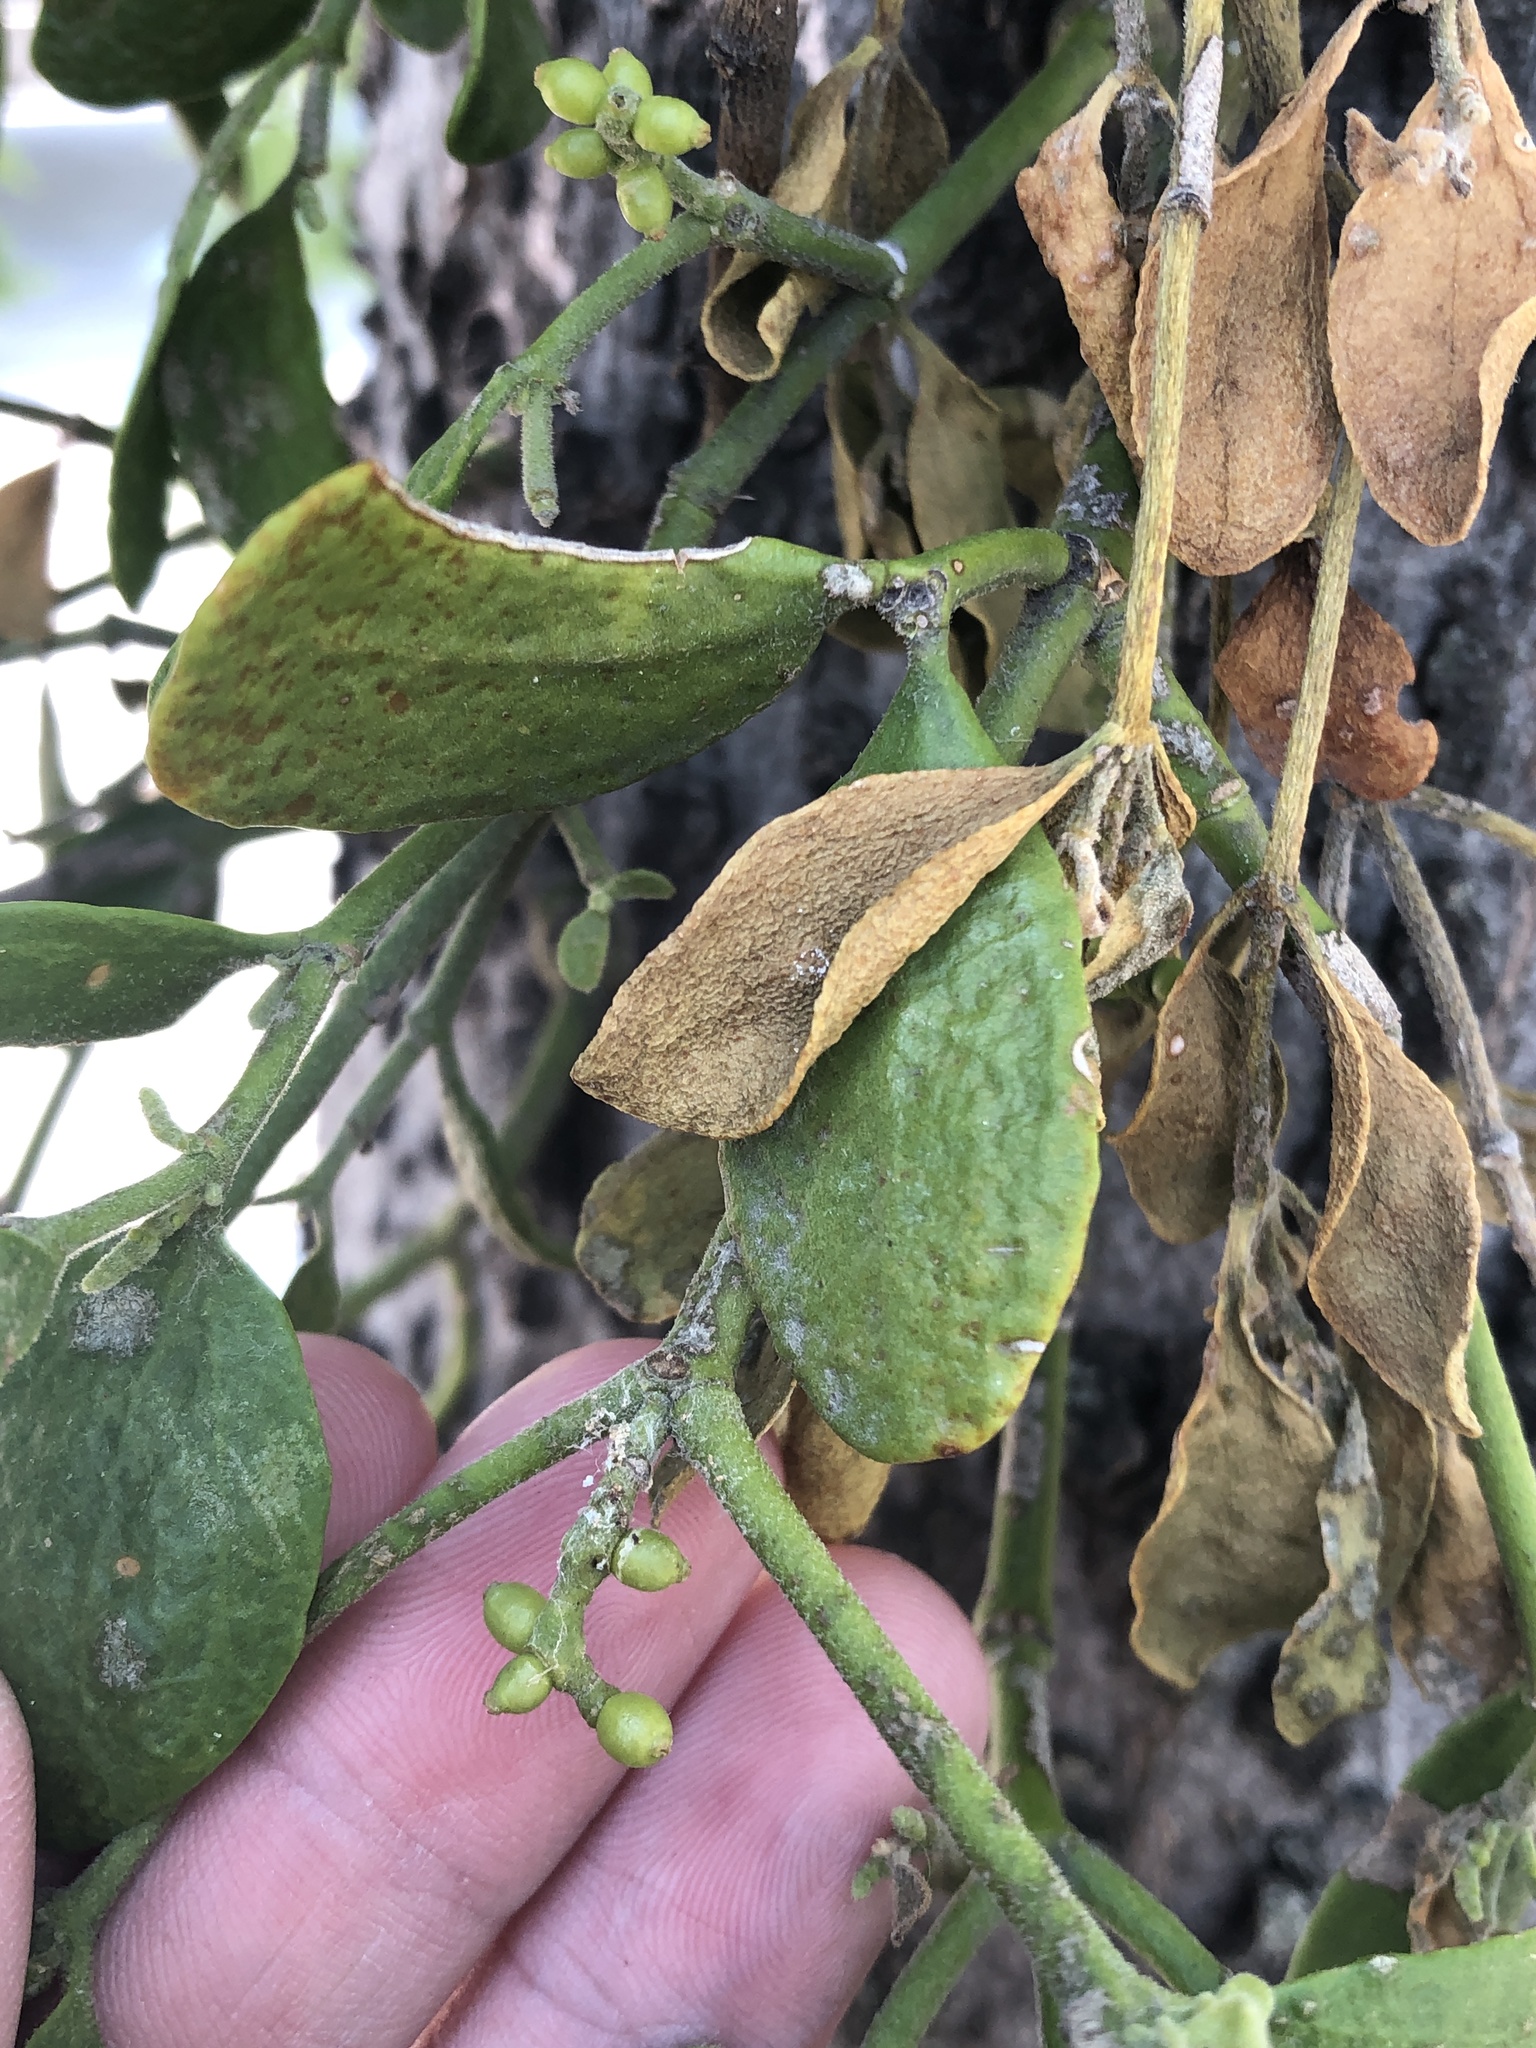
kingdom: Plantae
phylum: Tracheophyta
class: Magnoliopsida
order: Santalales
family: Viscaceae
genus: Phoradendron
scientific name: Phoradendron leucarpum
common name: Pacific mistletoe
